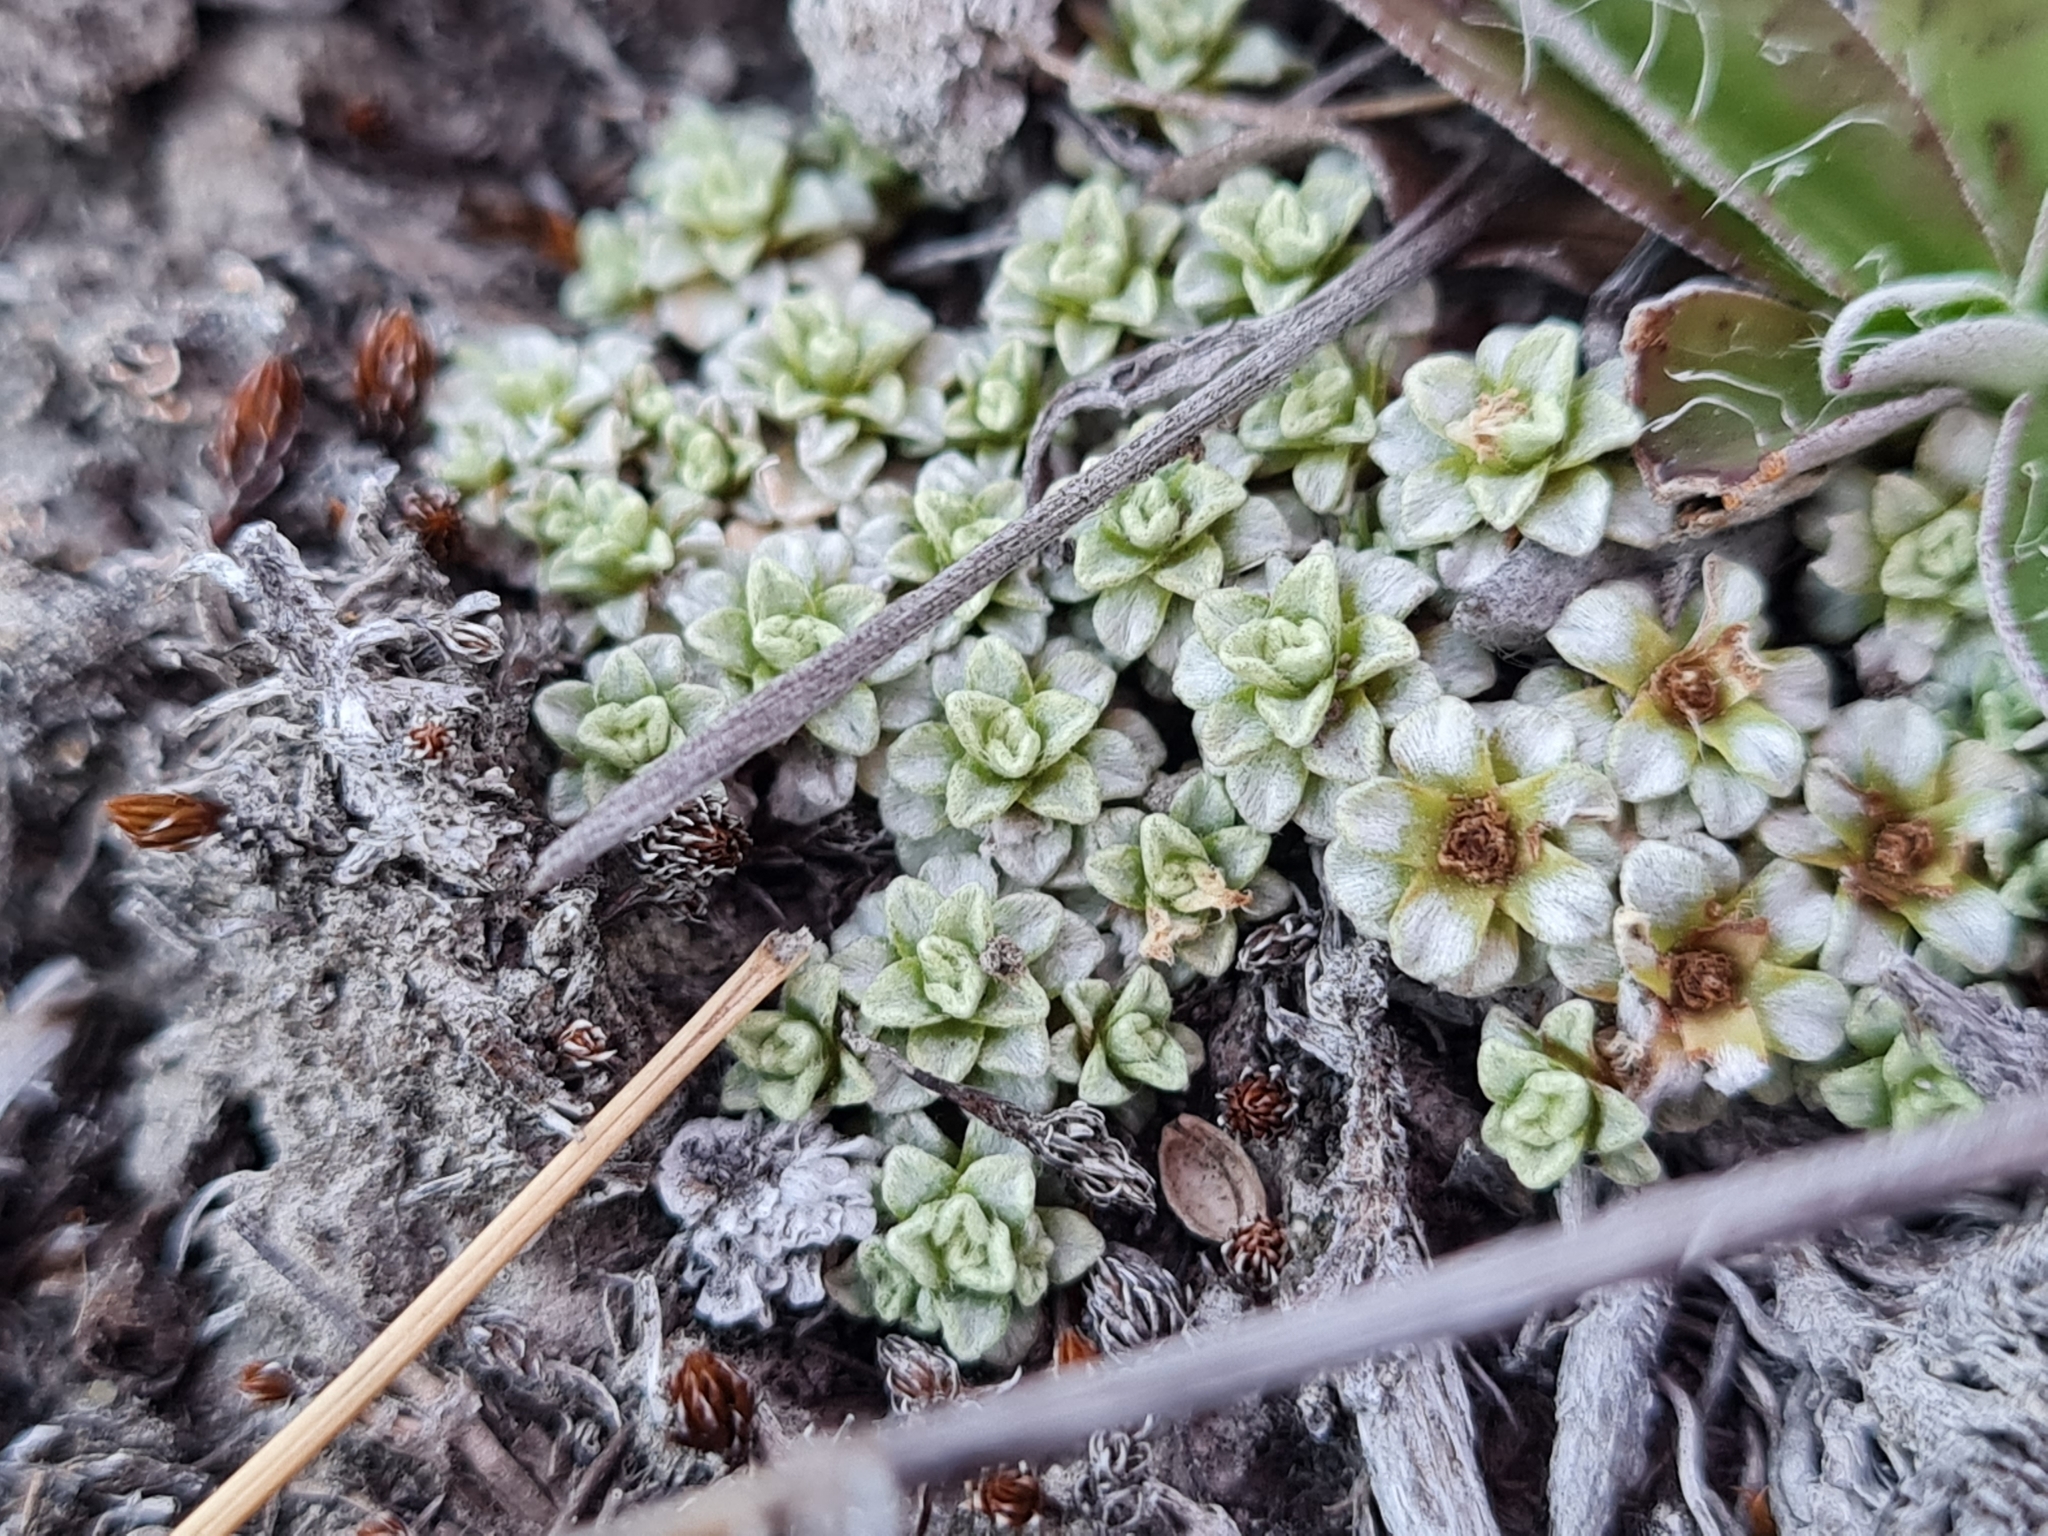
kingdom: Plantae
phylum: Tracheophyta
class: Magnoliopsida
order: Asterales
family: Asteraceae
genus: Raoulia
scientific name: Raoulia parkii
